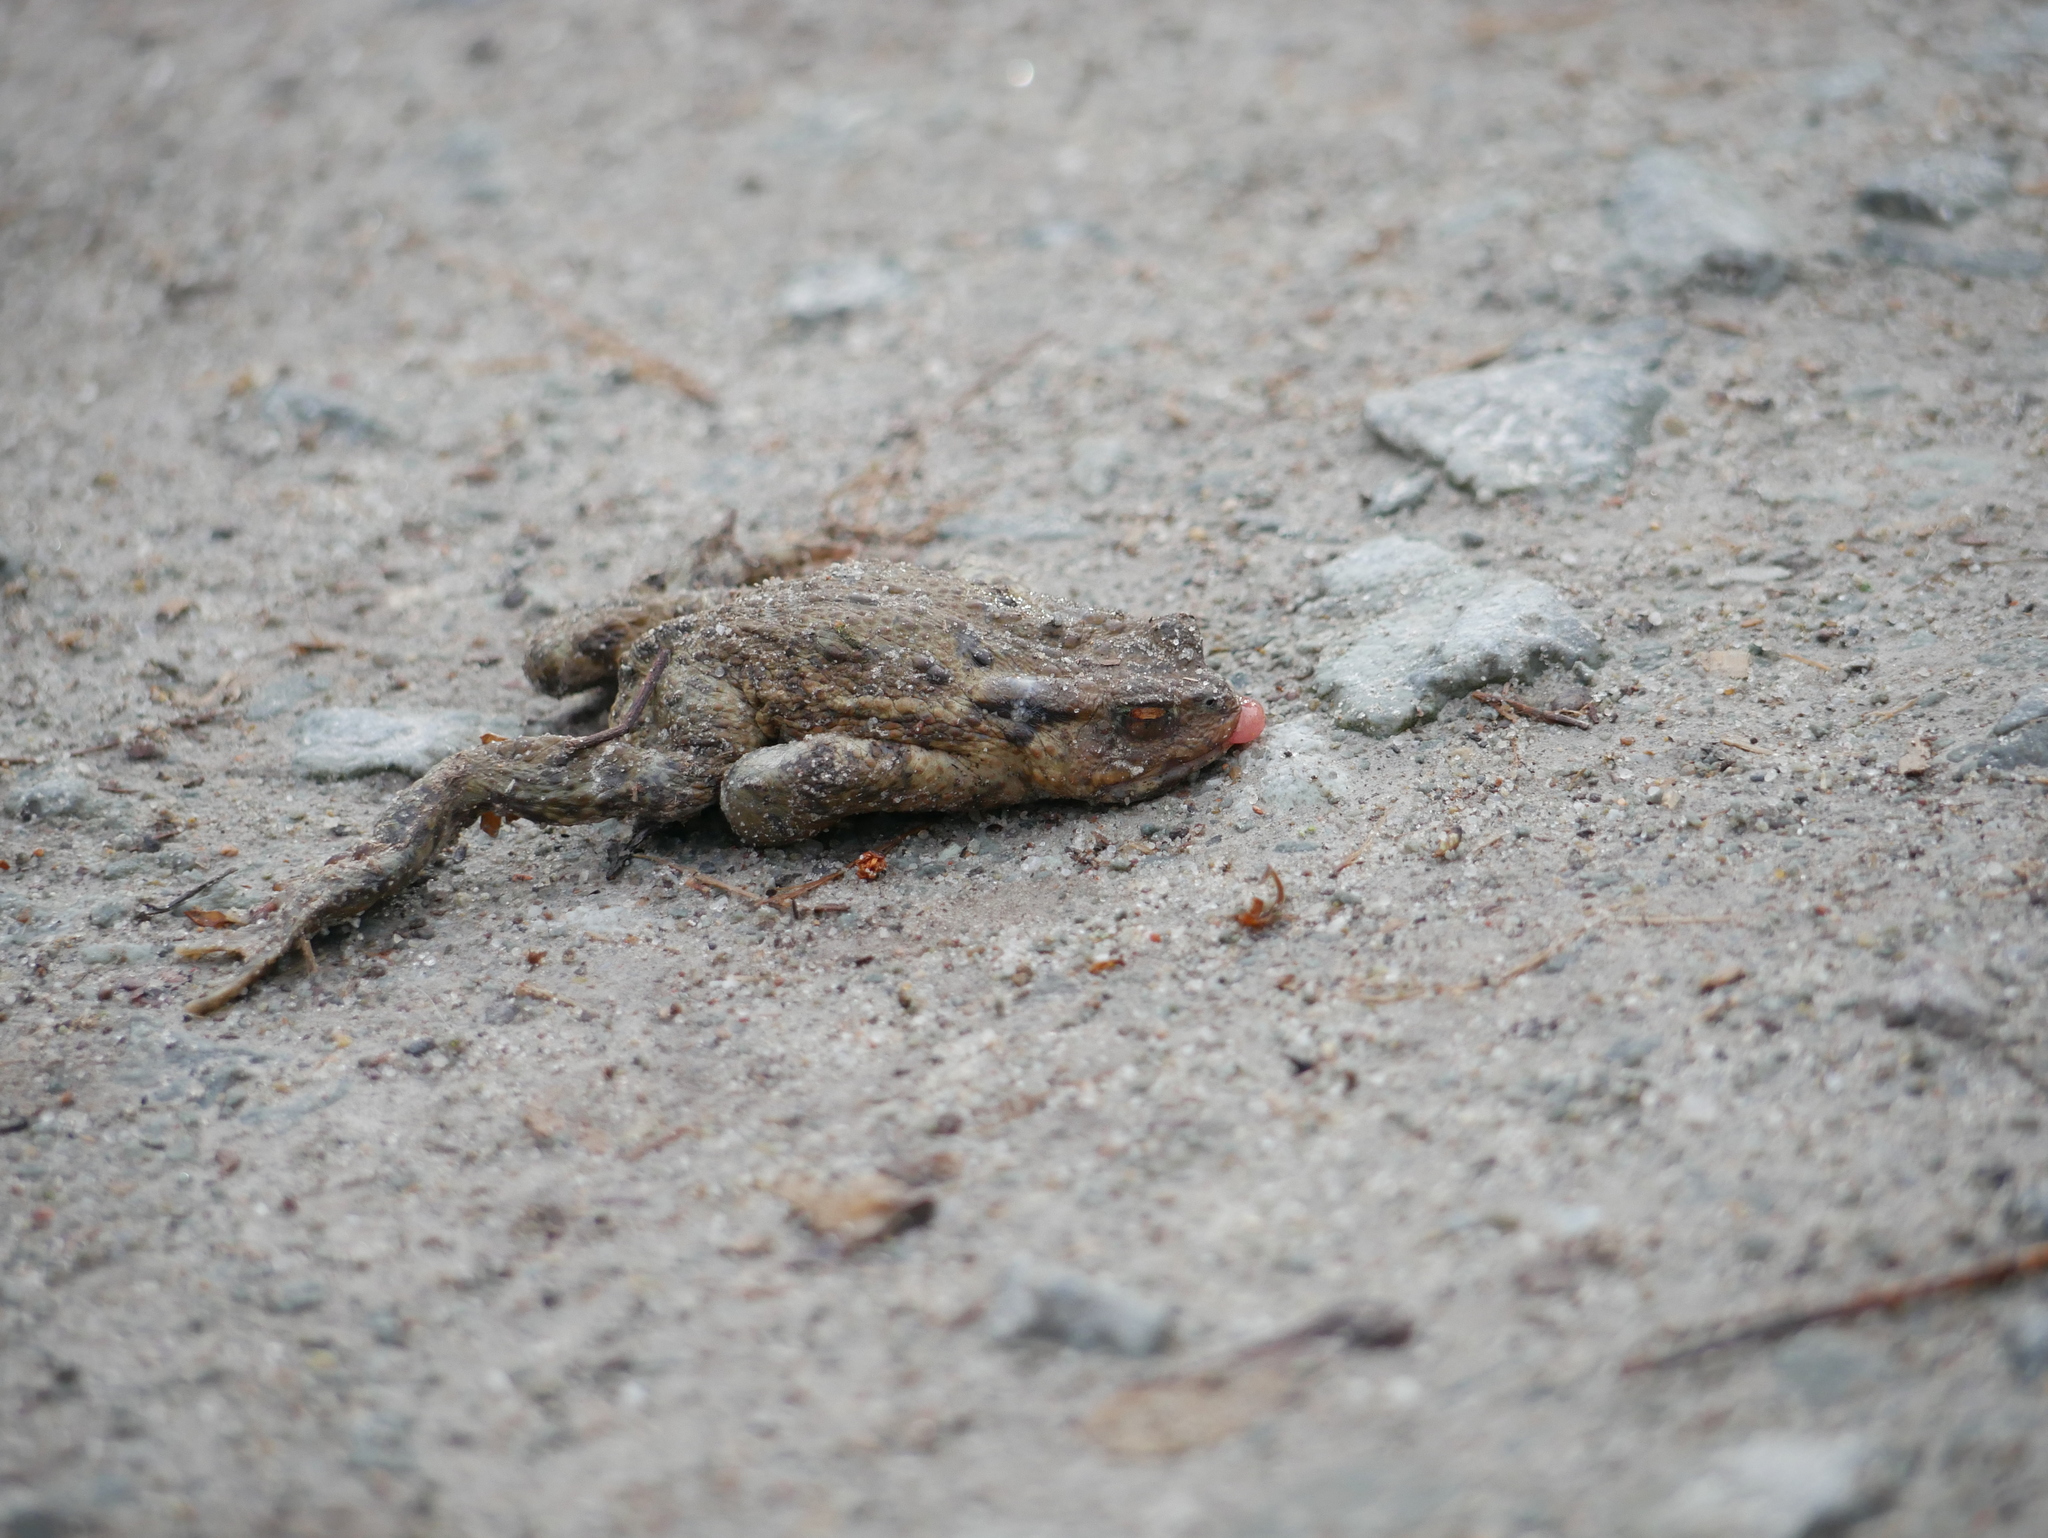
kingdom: Animalia
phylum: Chordata
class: Amphibia
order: Anura
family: Bufonidae
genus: Bufo
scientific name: Bufo bufo
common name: Common toad
